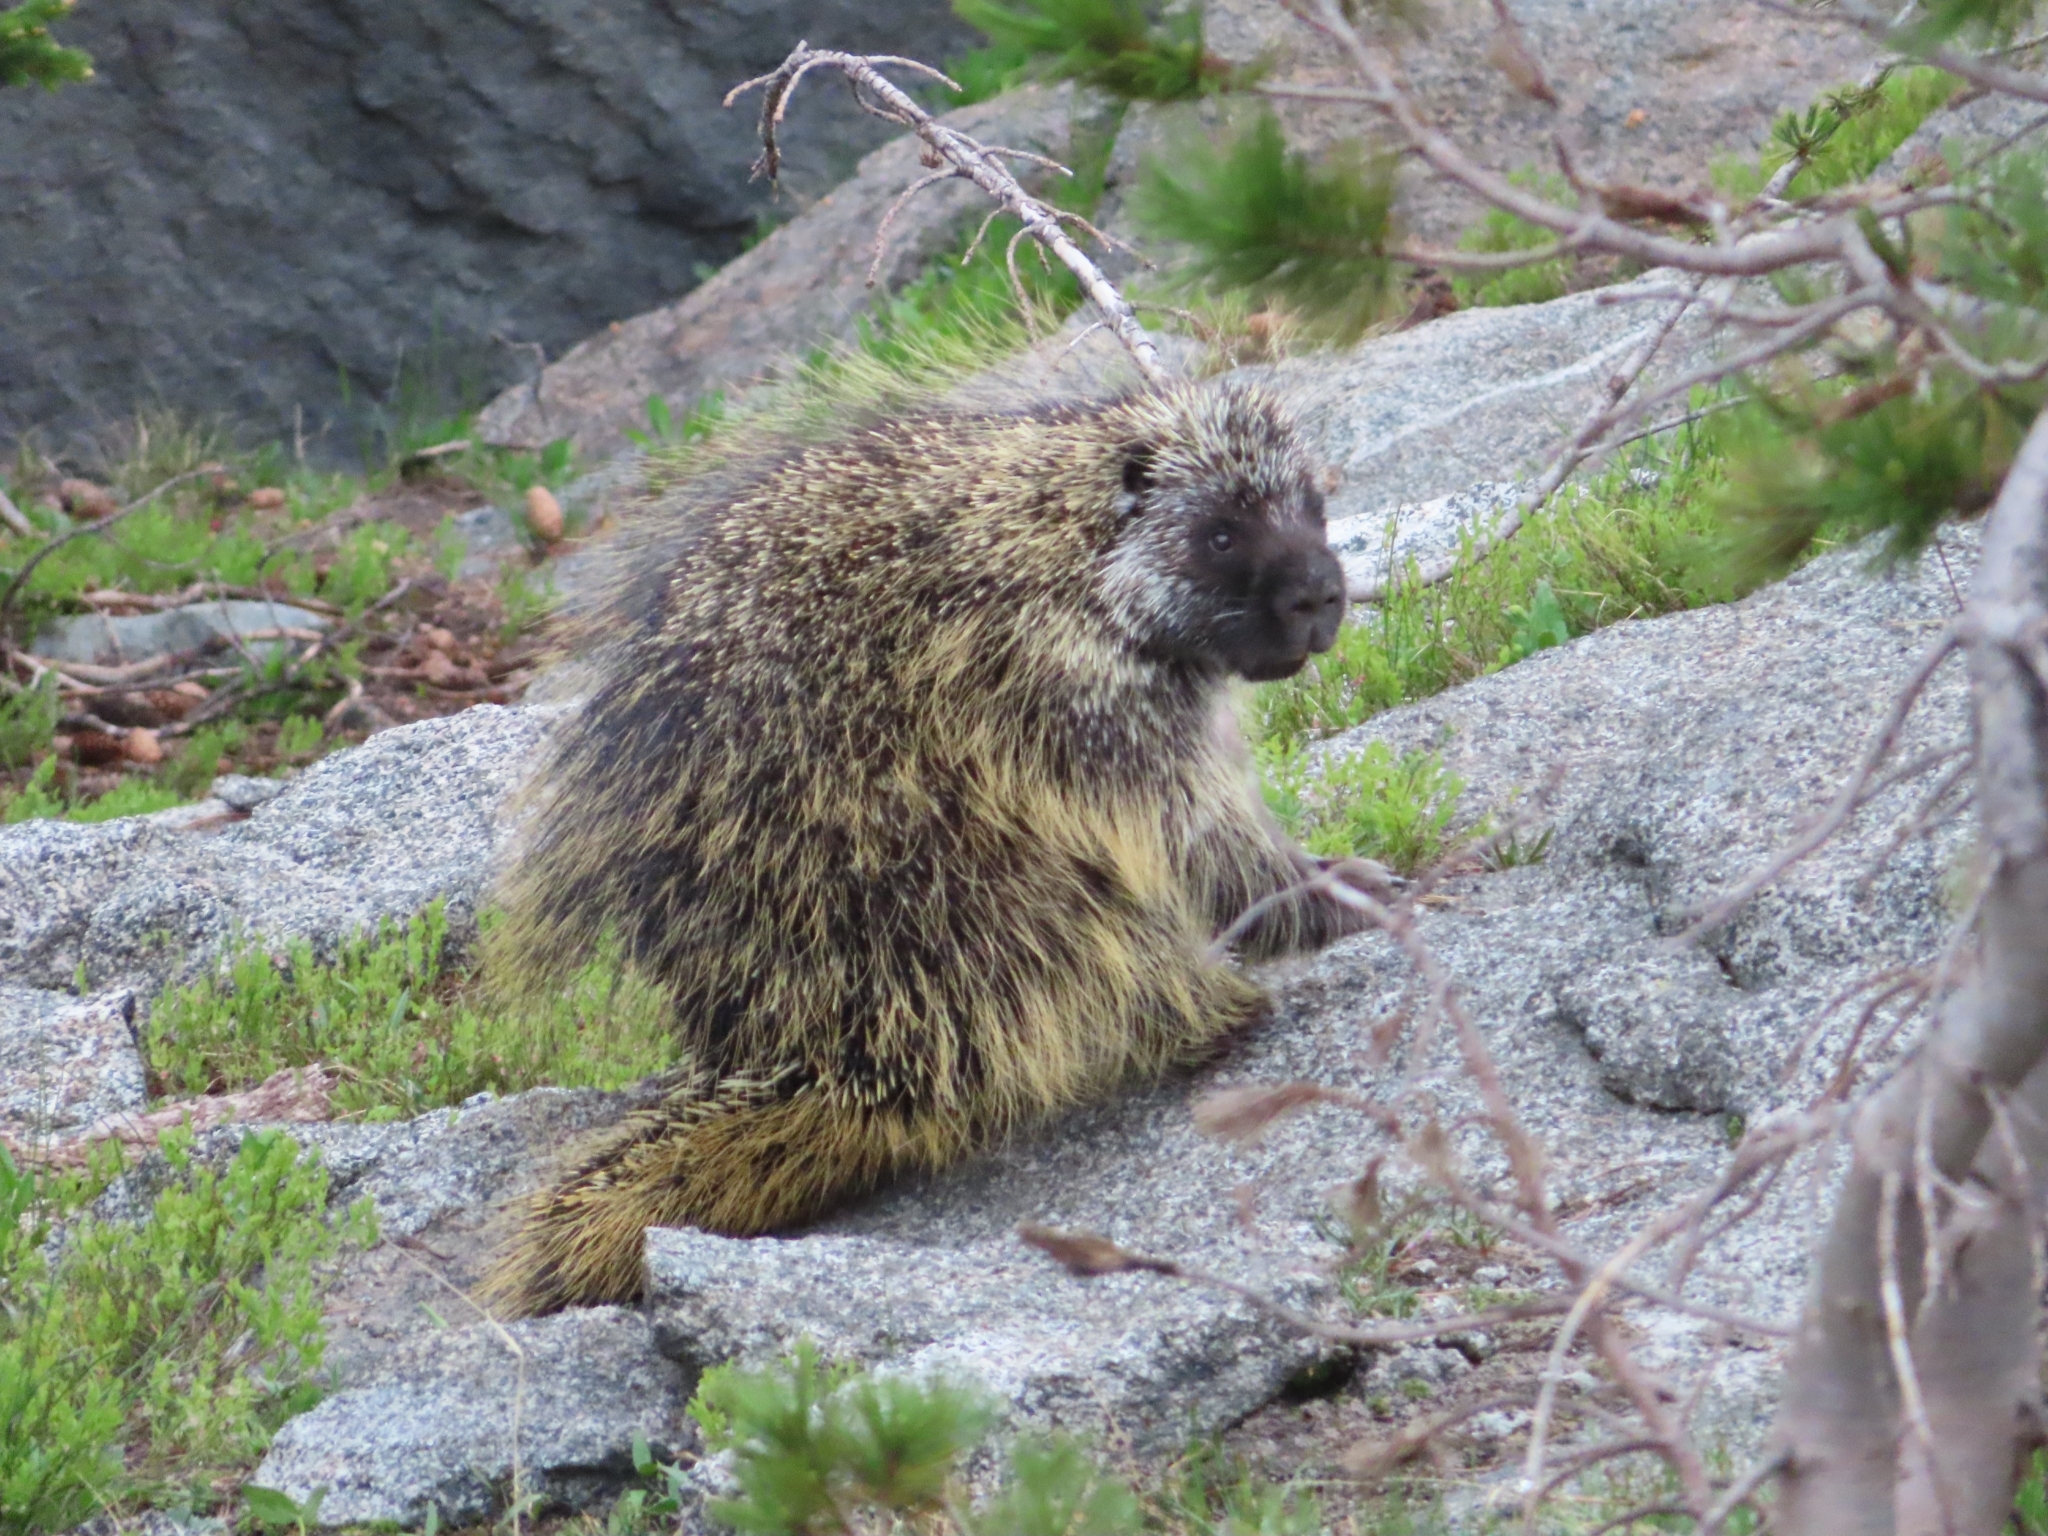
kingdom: Animalia
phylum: Chordata
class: Mammalia
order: Rodentia
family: Erethizontidae
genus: Erethizon
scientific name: Erethizon dorsatus
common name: North american porcupine
